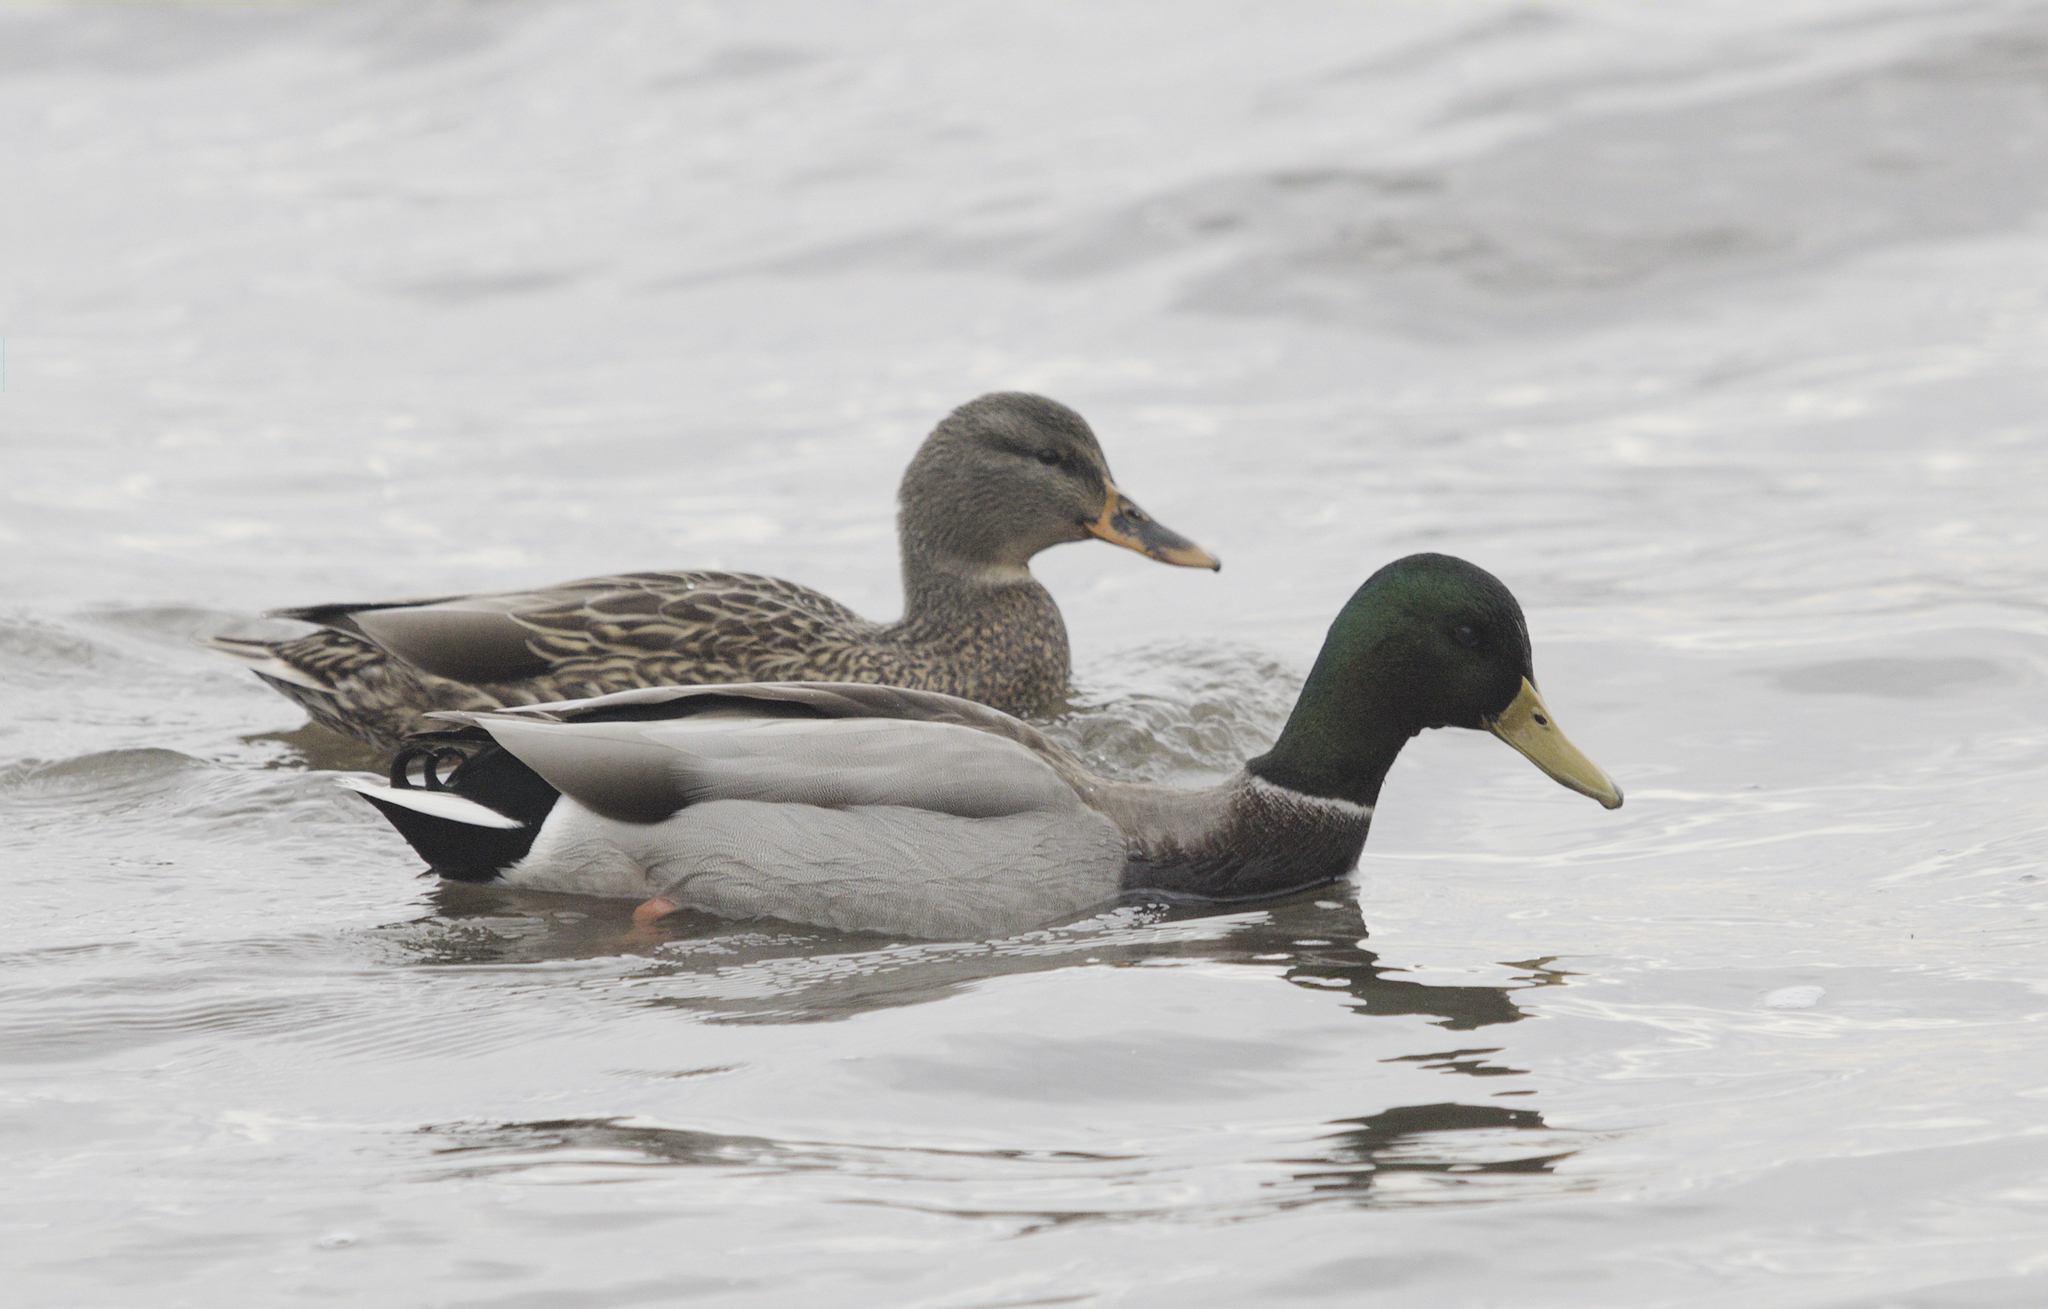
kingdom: Animalia
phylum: Chordata
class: Aves
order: Anseriformes
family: Anatidae
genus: Anas
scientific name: Anas platyrhynchos
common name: Mallard
